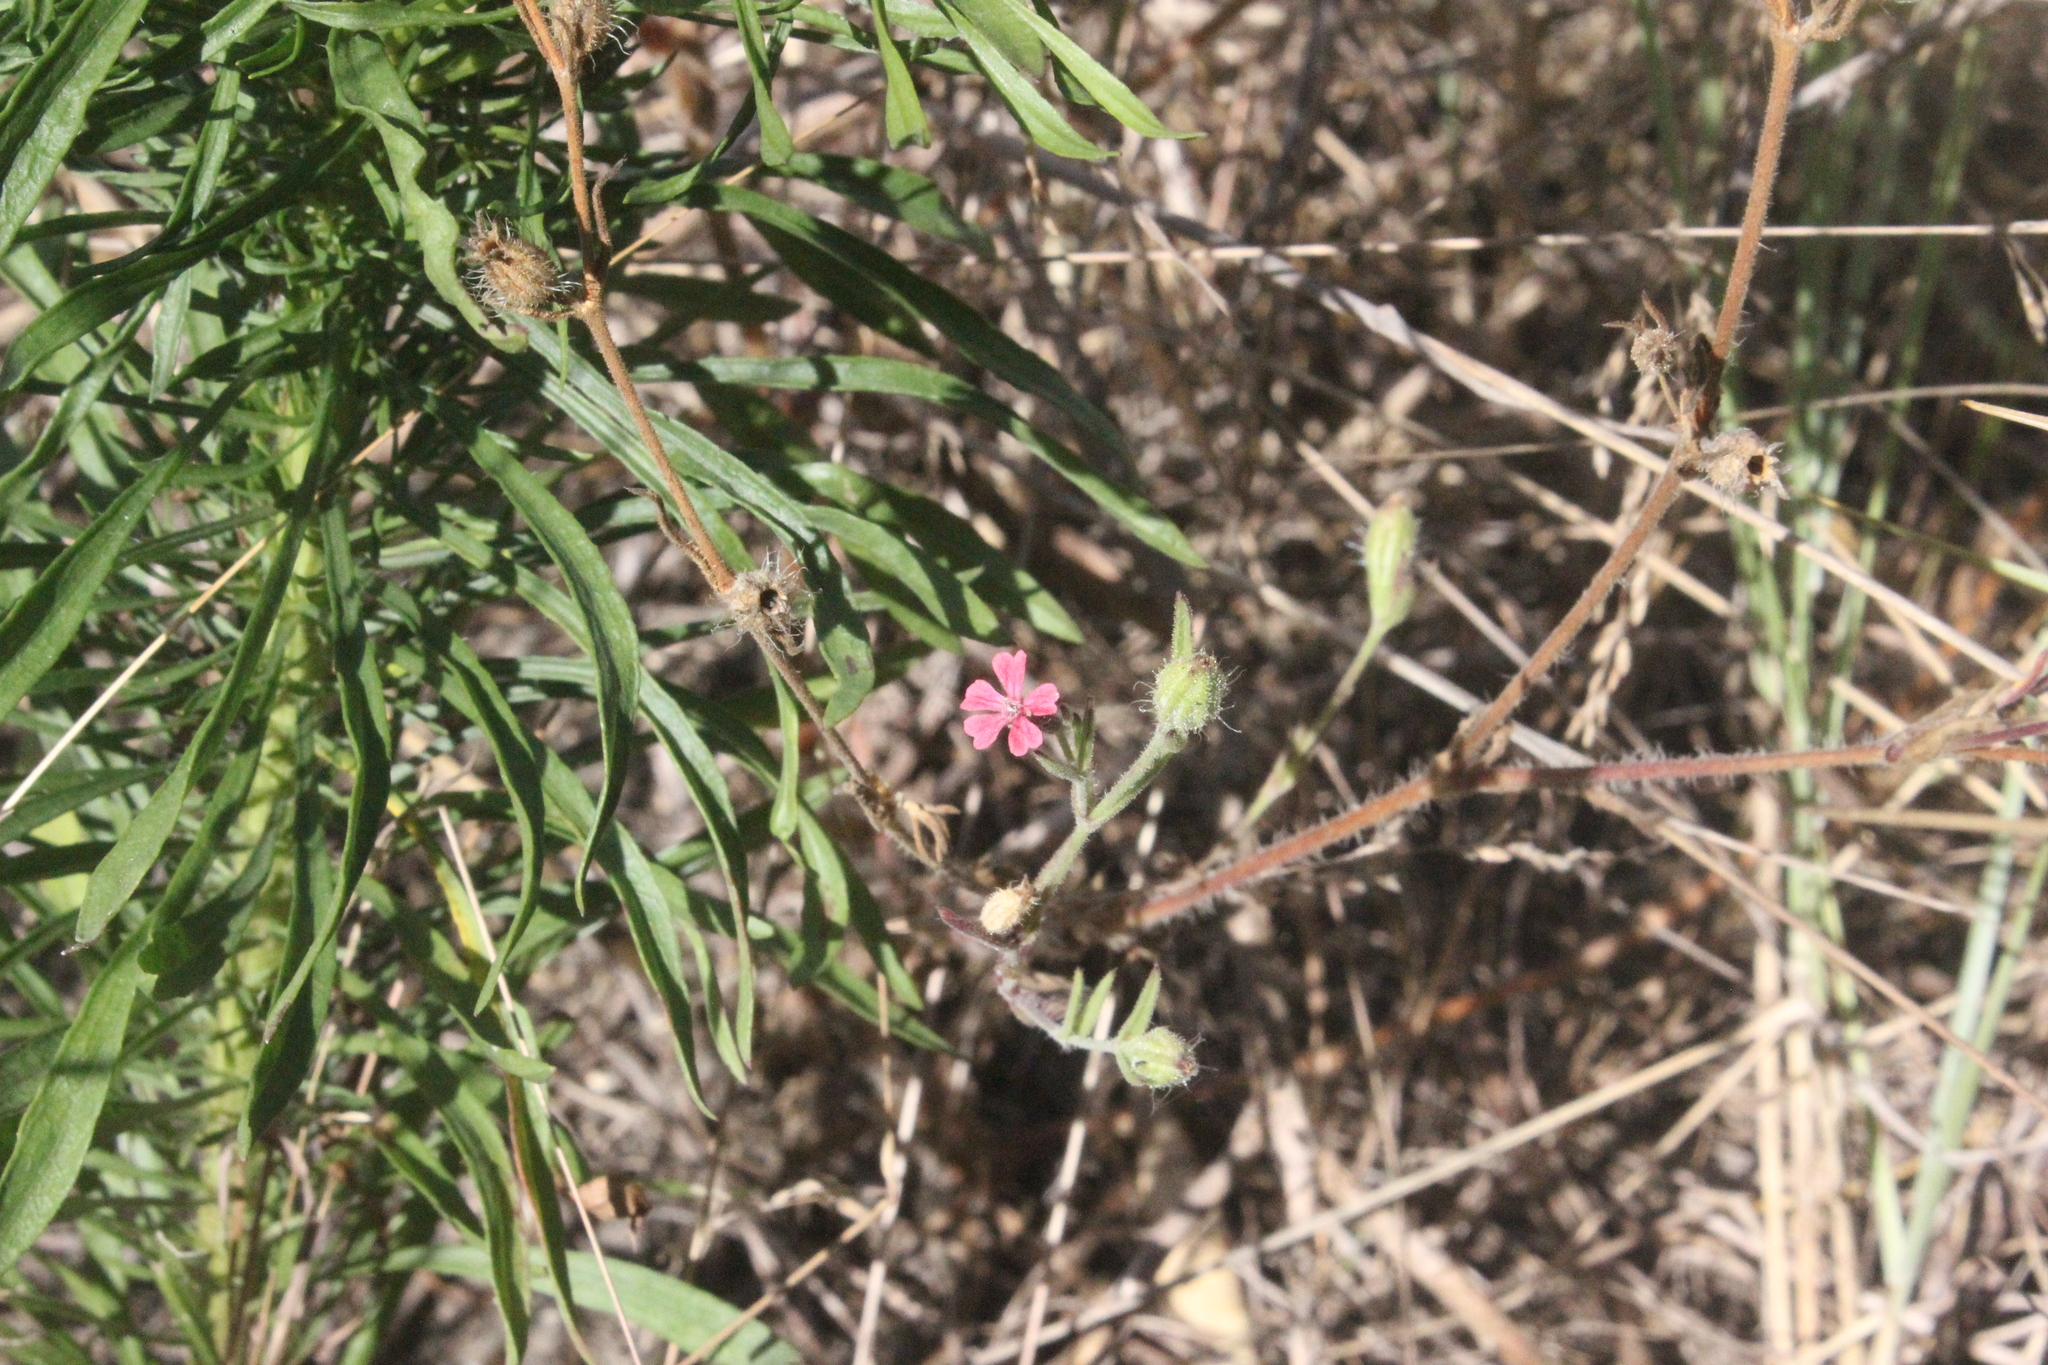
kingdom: Plantae
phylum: Tracheophyta
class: Magnoliopsida
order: Caryophyllales
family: Caryophyllaceae
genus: Silene
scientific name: Silene gallica
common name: Small-flowered catchfly
